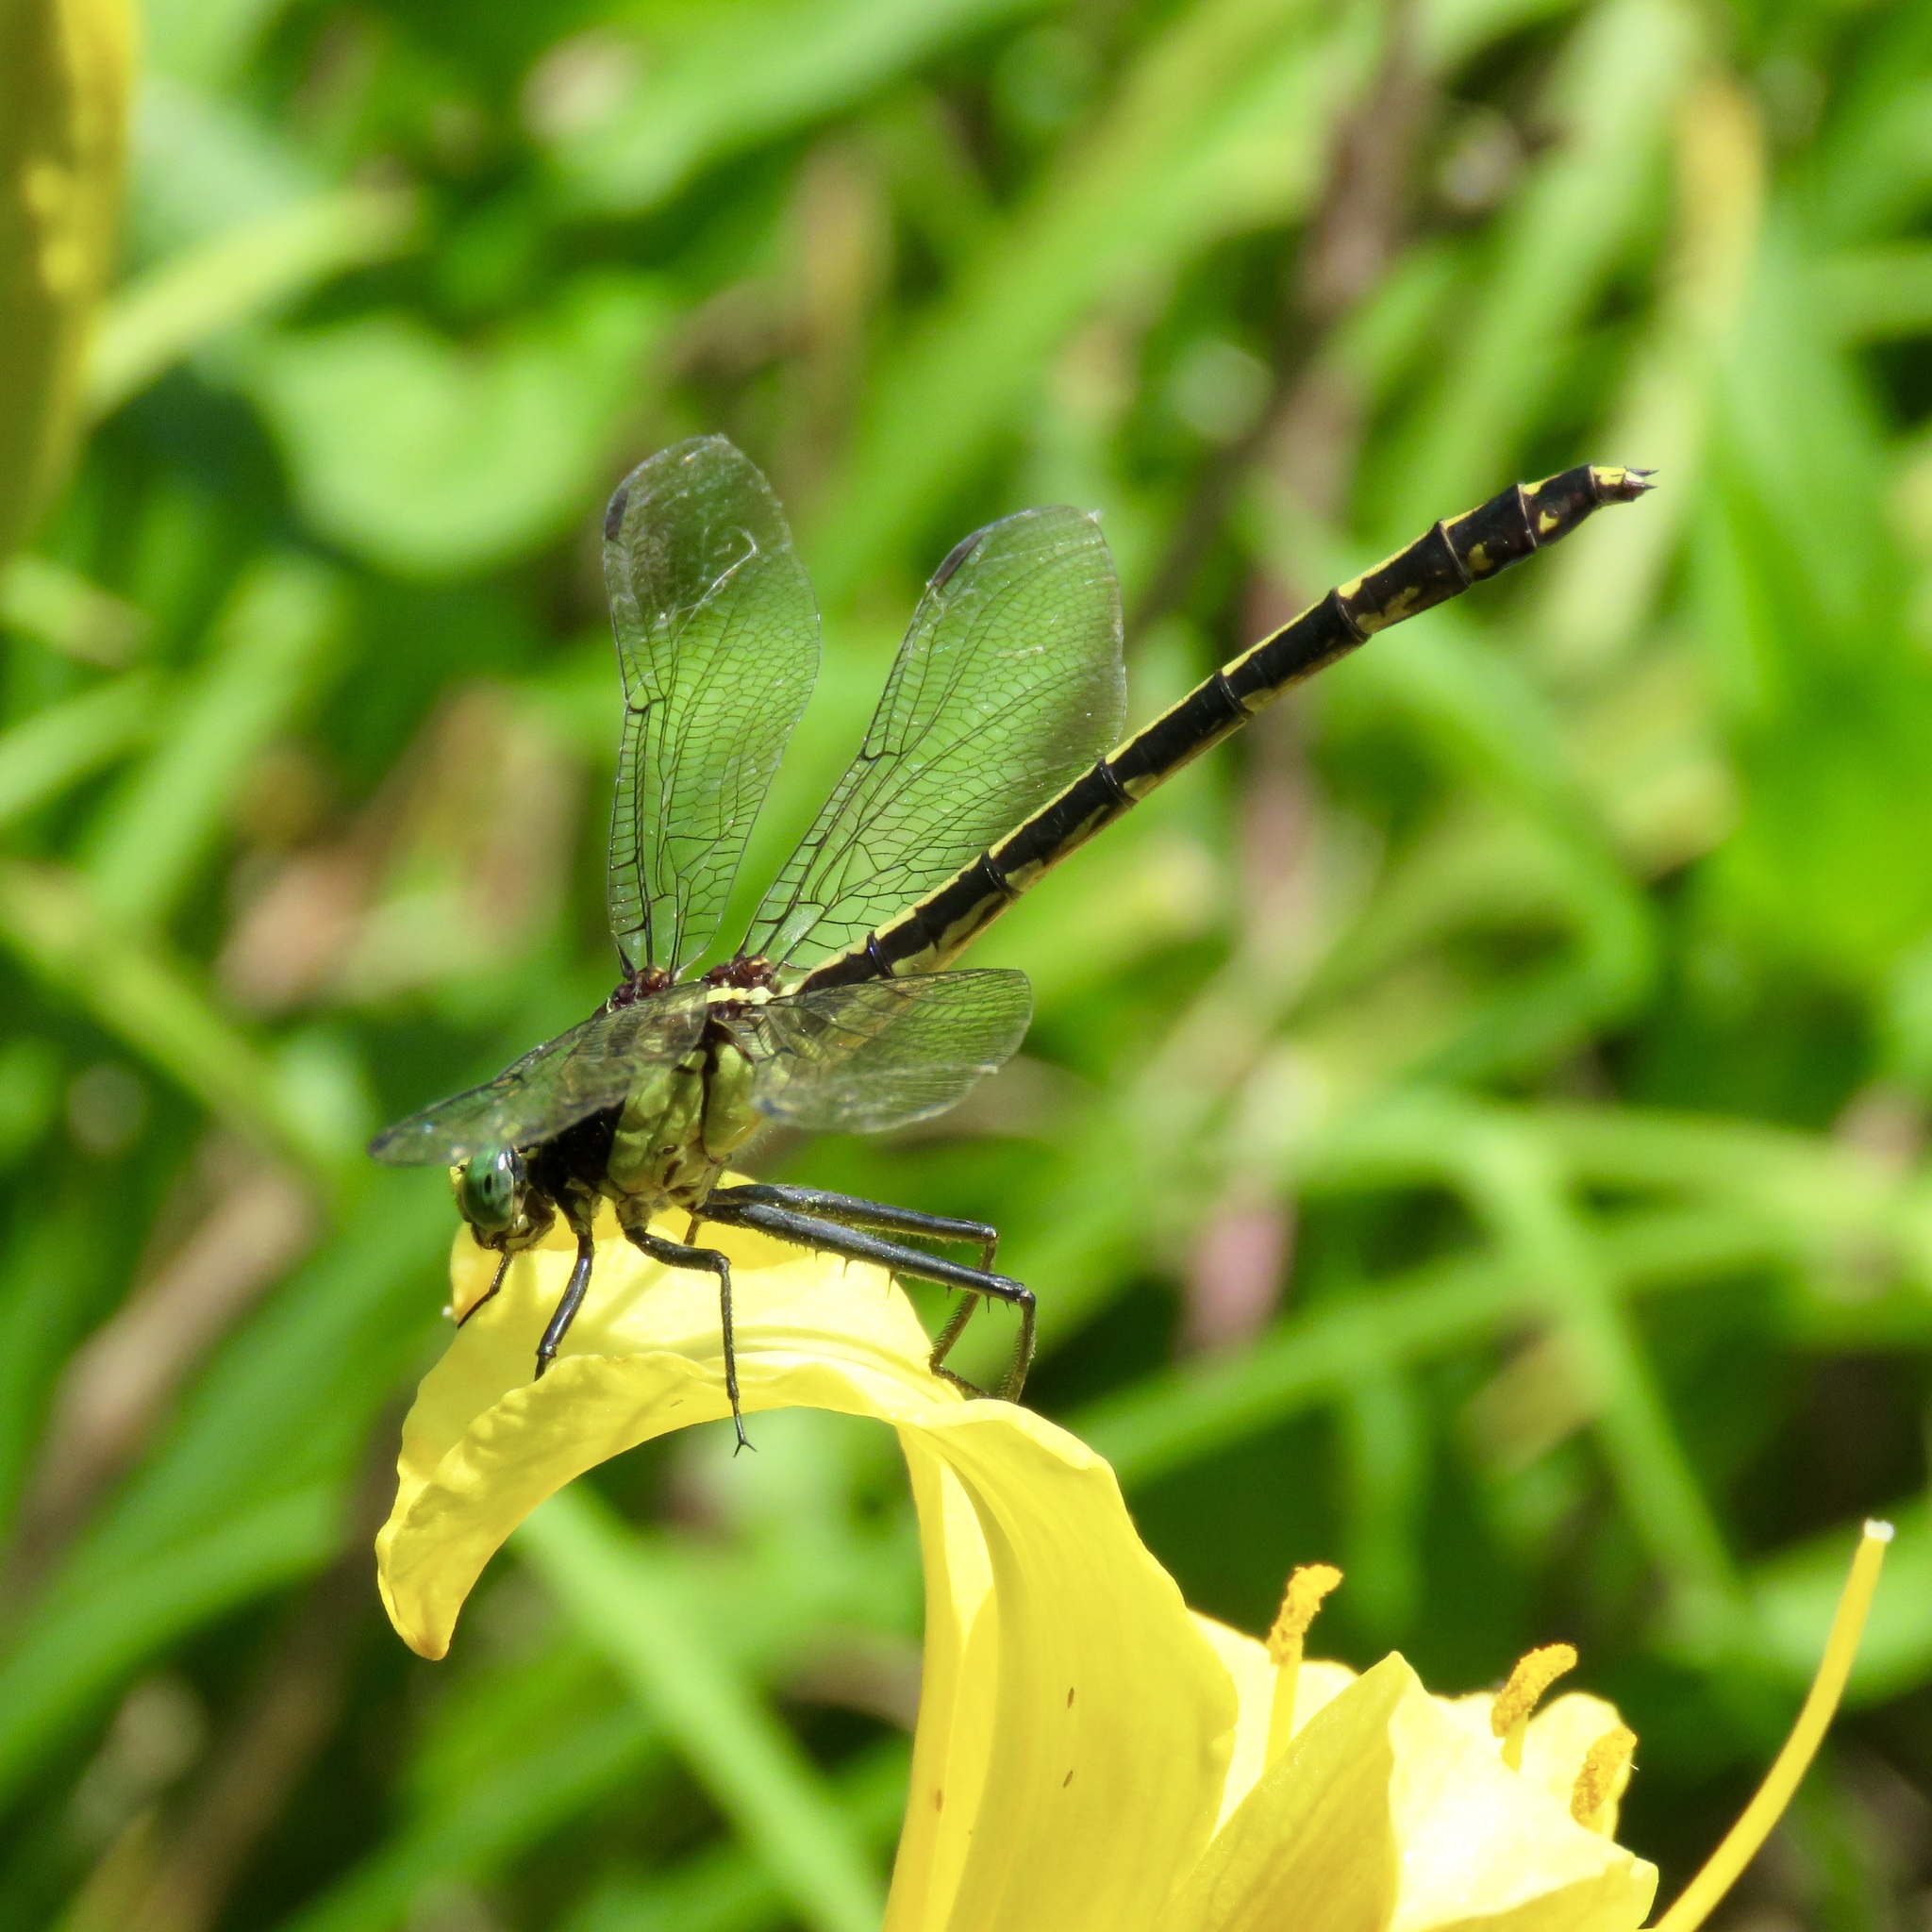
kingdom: Animalia
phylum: Arthropoda
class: Insecta
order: Odonata
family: Gomphidae
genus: Dromogomphus
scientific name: Dromogomphus spinosus
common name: Black-shouldered spinyleg
